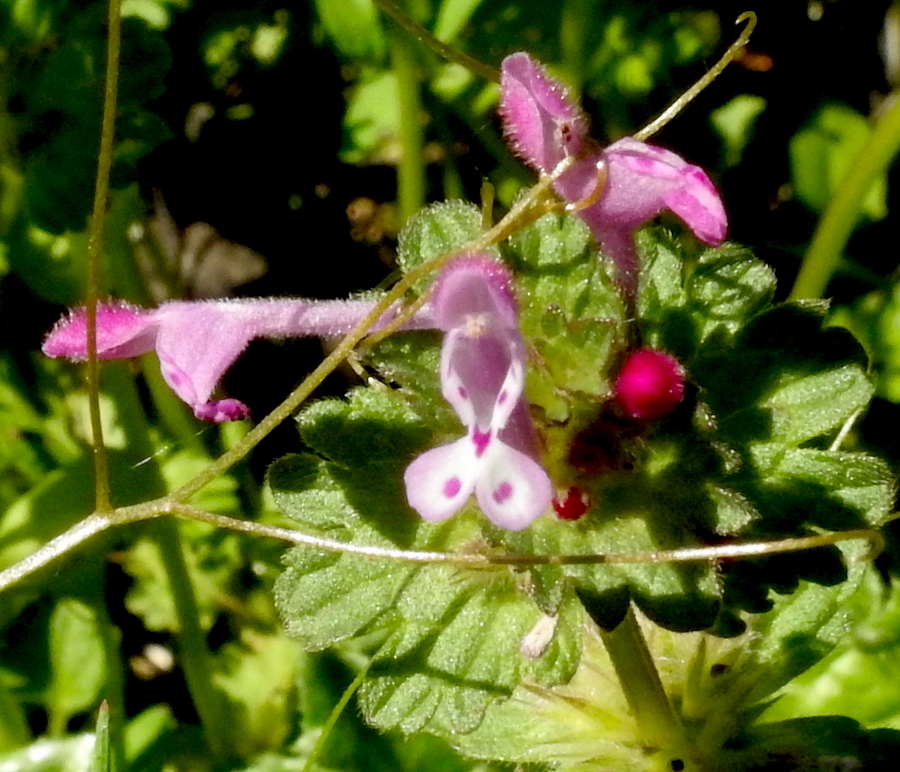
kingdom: Plantae
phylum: Tracheophyta
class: Magnoliopsida
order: Lamiales
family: Lamiaceae
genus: Lamium
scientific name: Lamium amplexicaule
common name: Henbit dead-nettle
